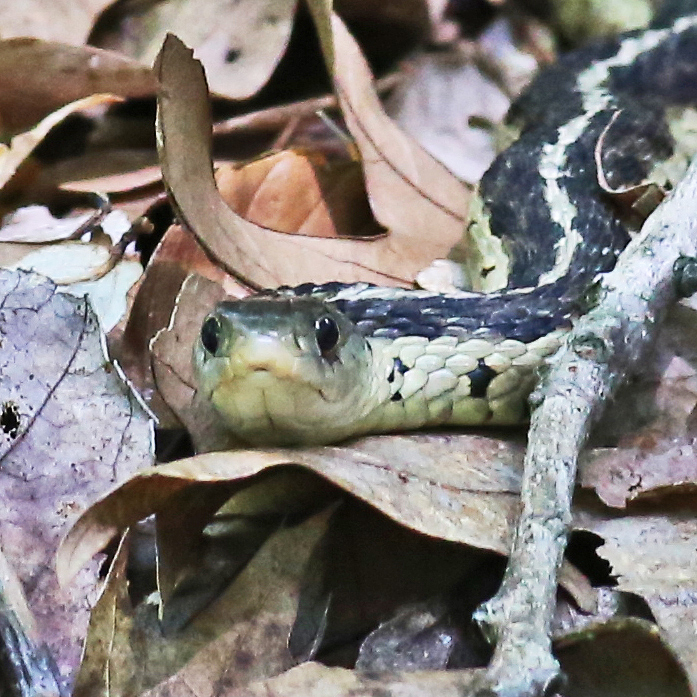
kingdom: Animalia
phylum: Chordata
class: Squamata
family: Colubridae
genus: Thamnophis
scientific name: Thamnophis sirtalis
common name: Common garter snake
